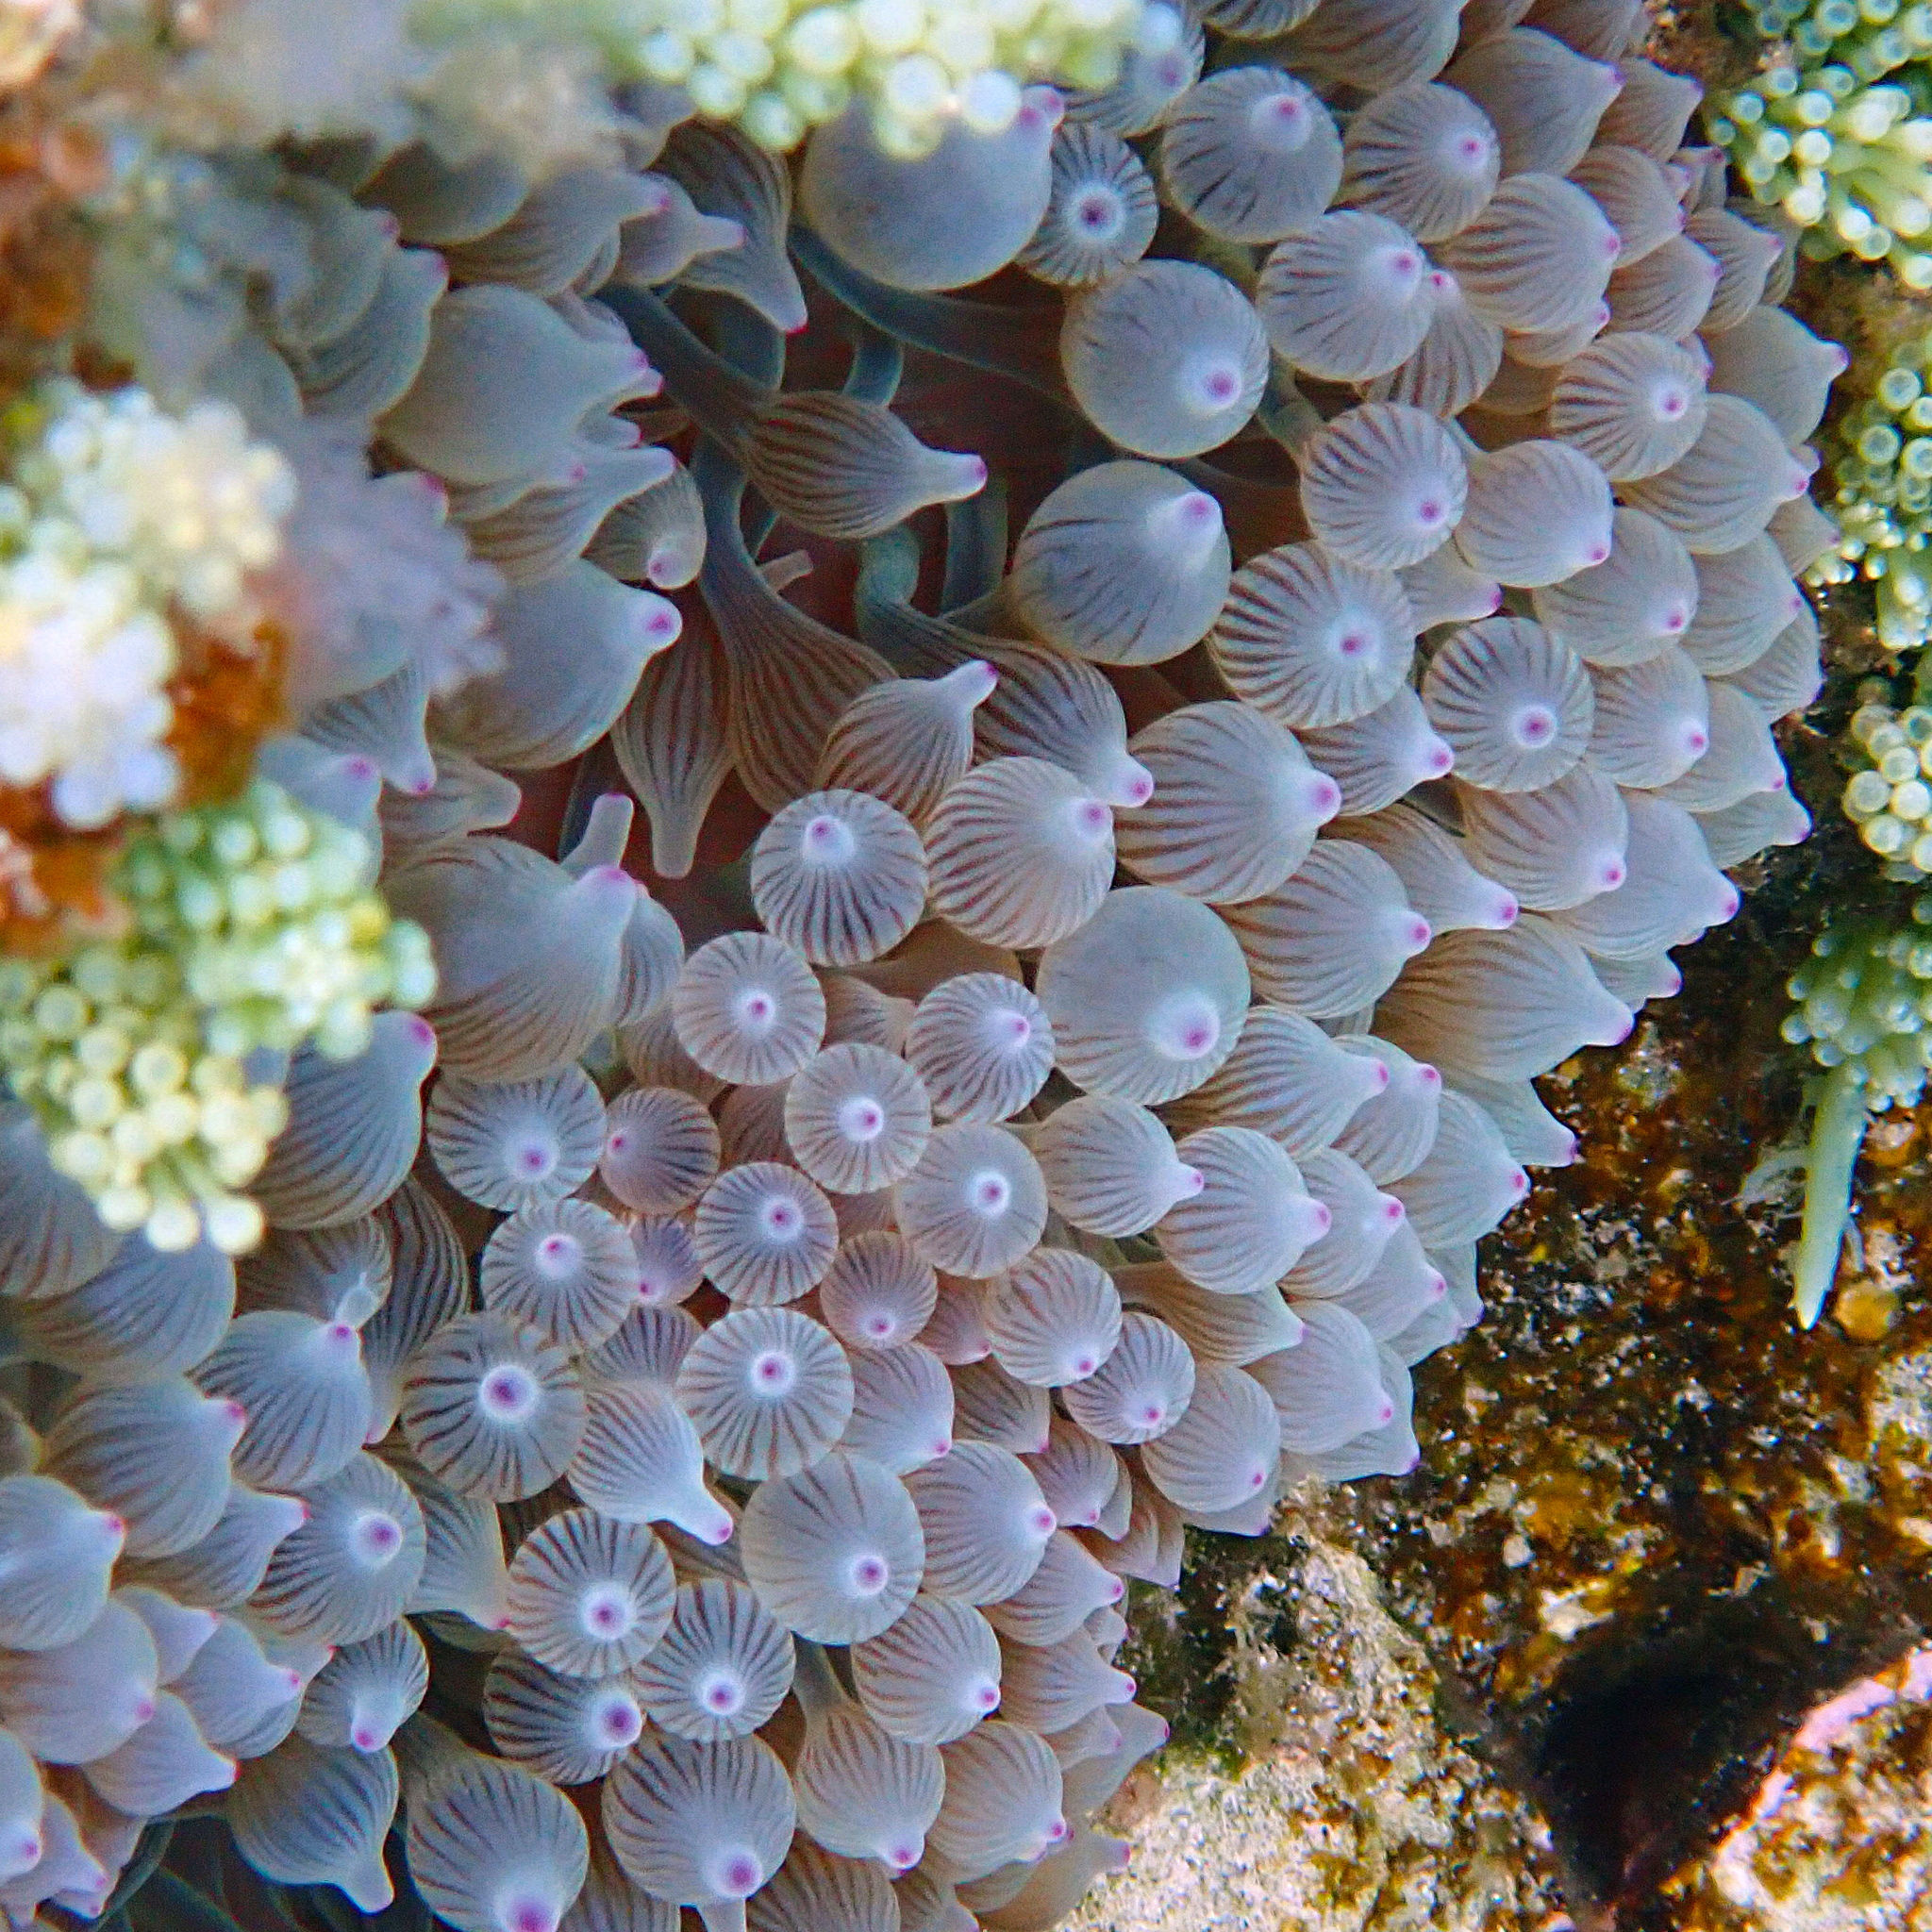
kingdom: Animalia
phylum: Cnidaria
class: Anthozoa
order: Actiniaria
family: Actiniidae
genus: Entacmaea
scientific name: Entacmaea quadricolor
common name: Bulb tentacle sea anemone
